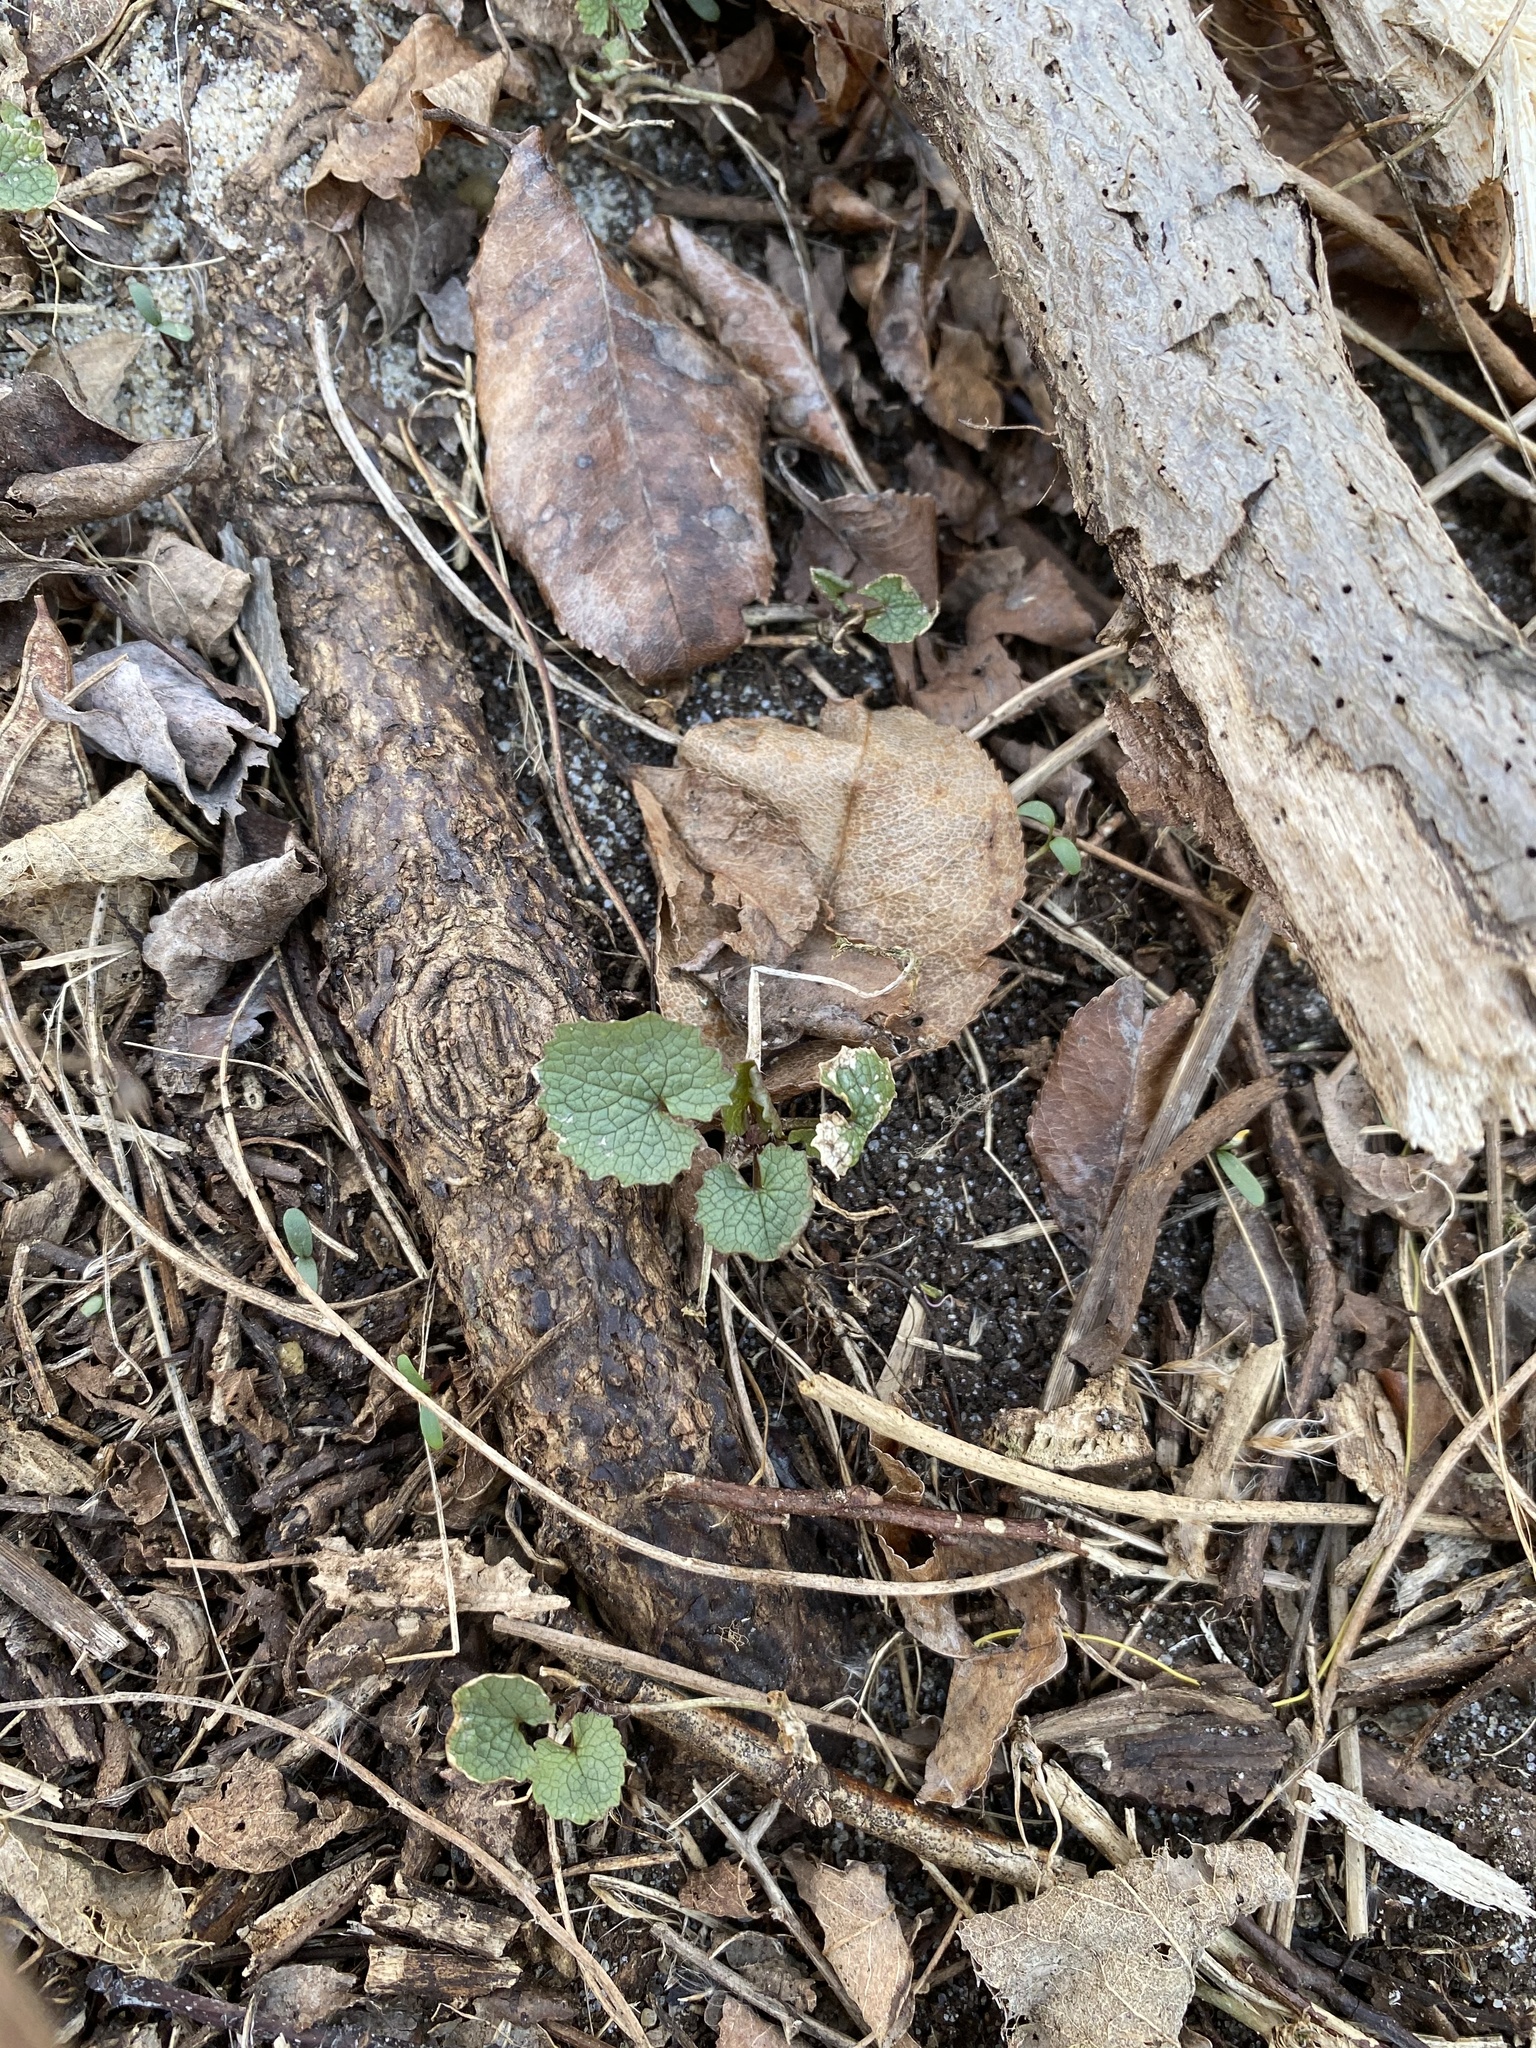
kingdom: Plantae
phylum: Tracheophyta
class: Magnoliopsida
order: Brassicales
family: Brassicaceae
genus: Alliaria
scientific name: Alliaria petiolata
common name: Garlic mustard
